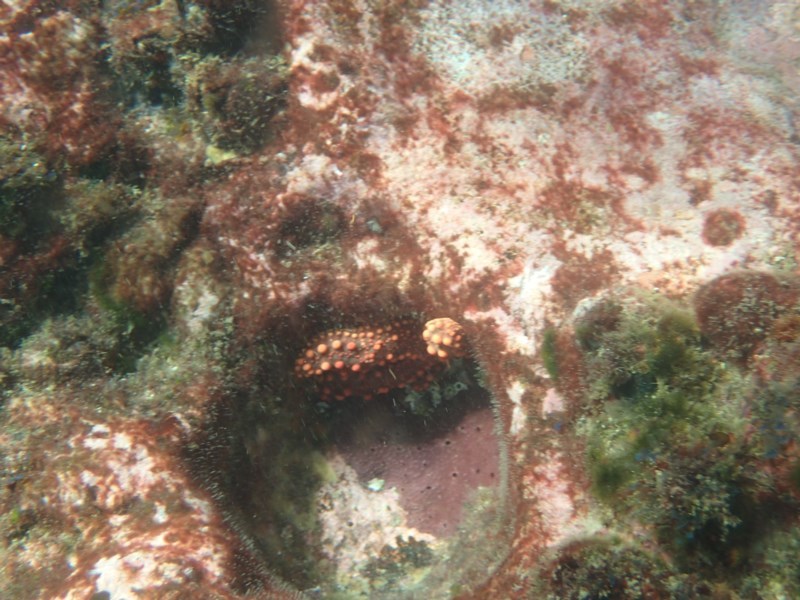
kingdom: Animalia
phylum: Echinodermata
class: Asteroidea
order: Forcipulatida
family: Stichasteridae
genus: Uniophora
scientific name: Uniophora granifera
